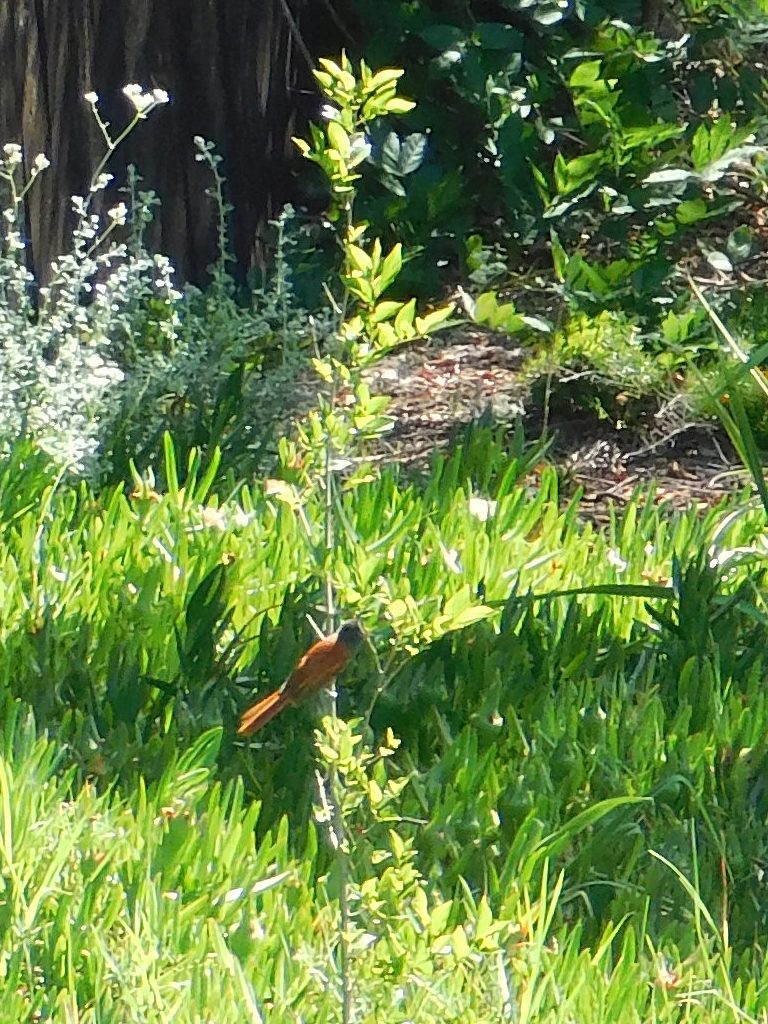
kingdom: Animalia
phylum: Chordata
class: Aves
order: Passeriformes
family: Monarchidae
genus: Terpsiphone
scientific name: Terpsiphone viridis
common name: African paradise flycatcher
